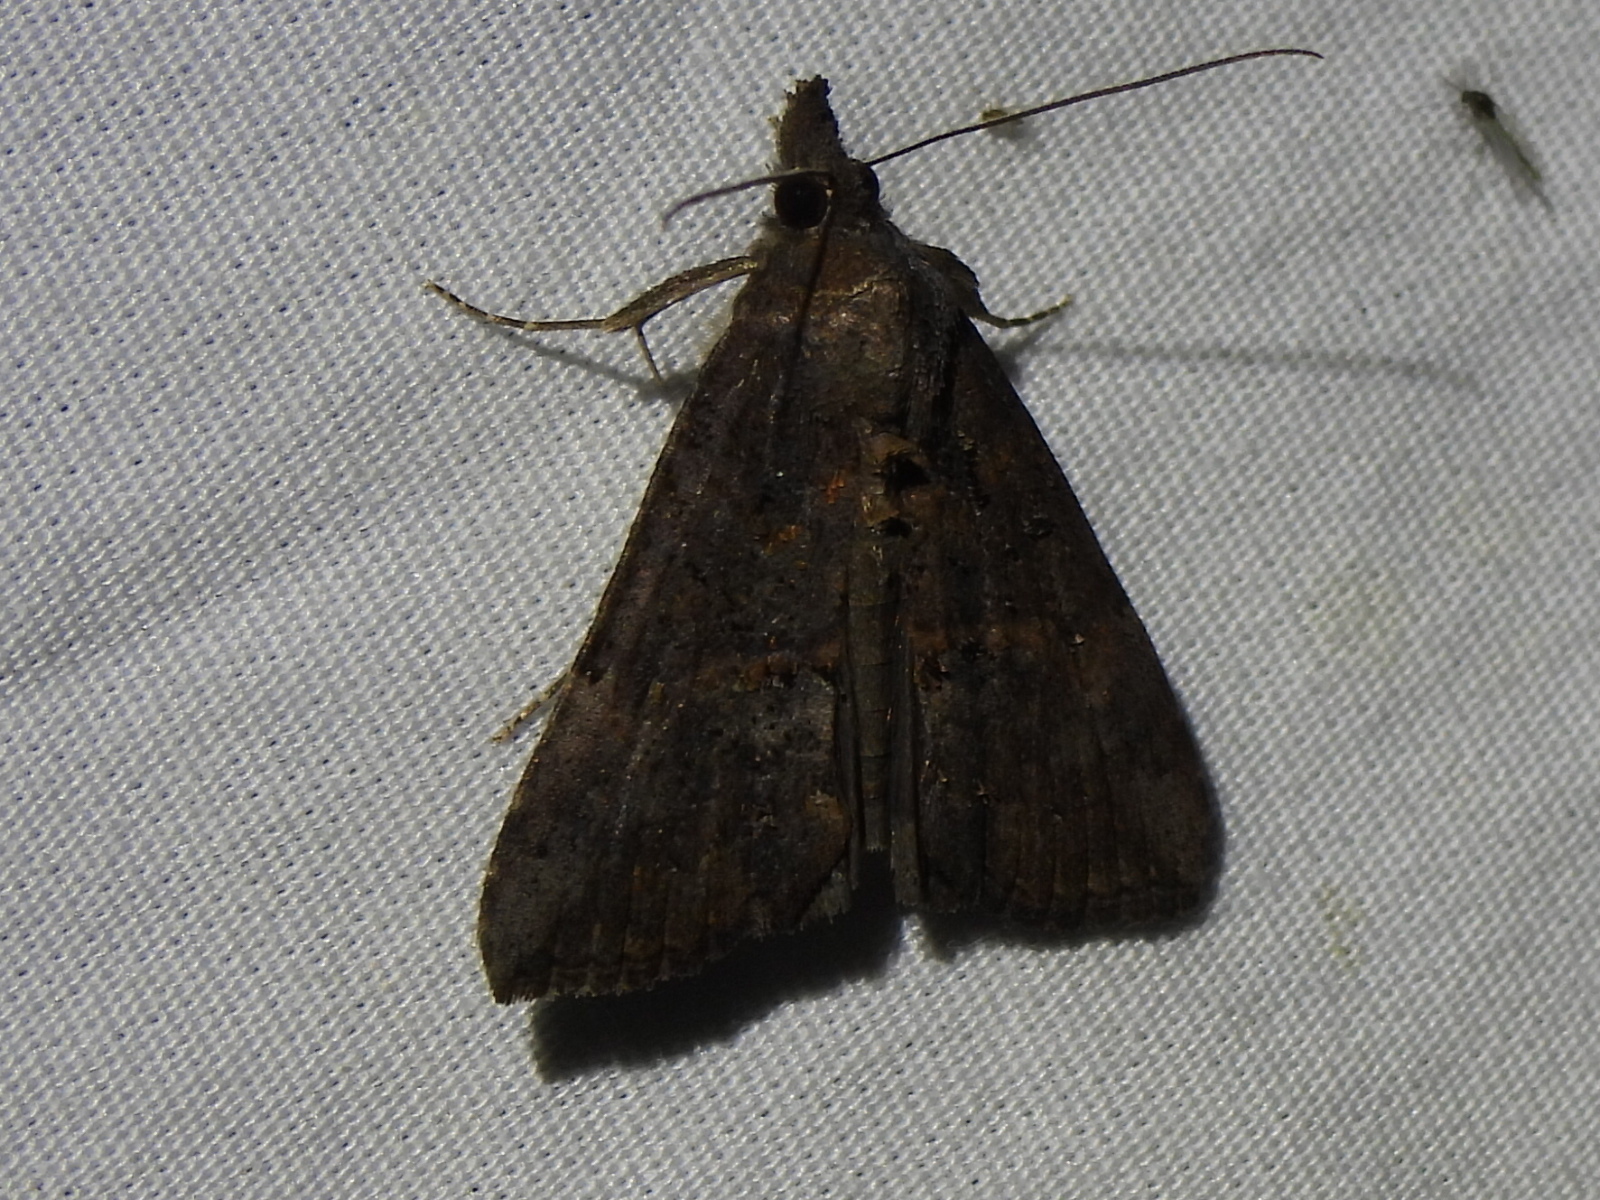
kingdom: Animalia
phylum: Arthropoda
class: Insecta
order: Lepidoptera
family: Erebidae
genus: Hypena
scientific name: Hypena scabra
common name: Green cloverworm
